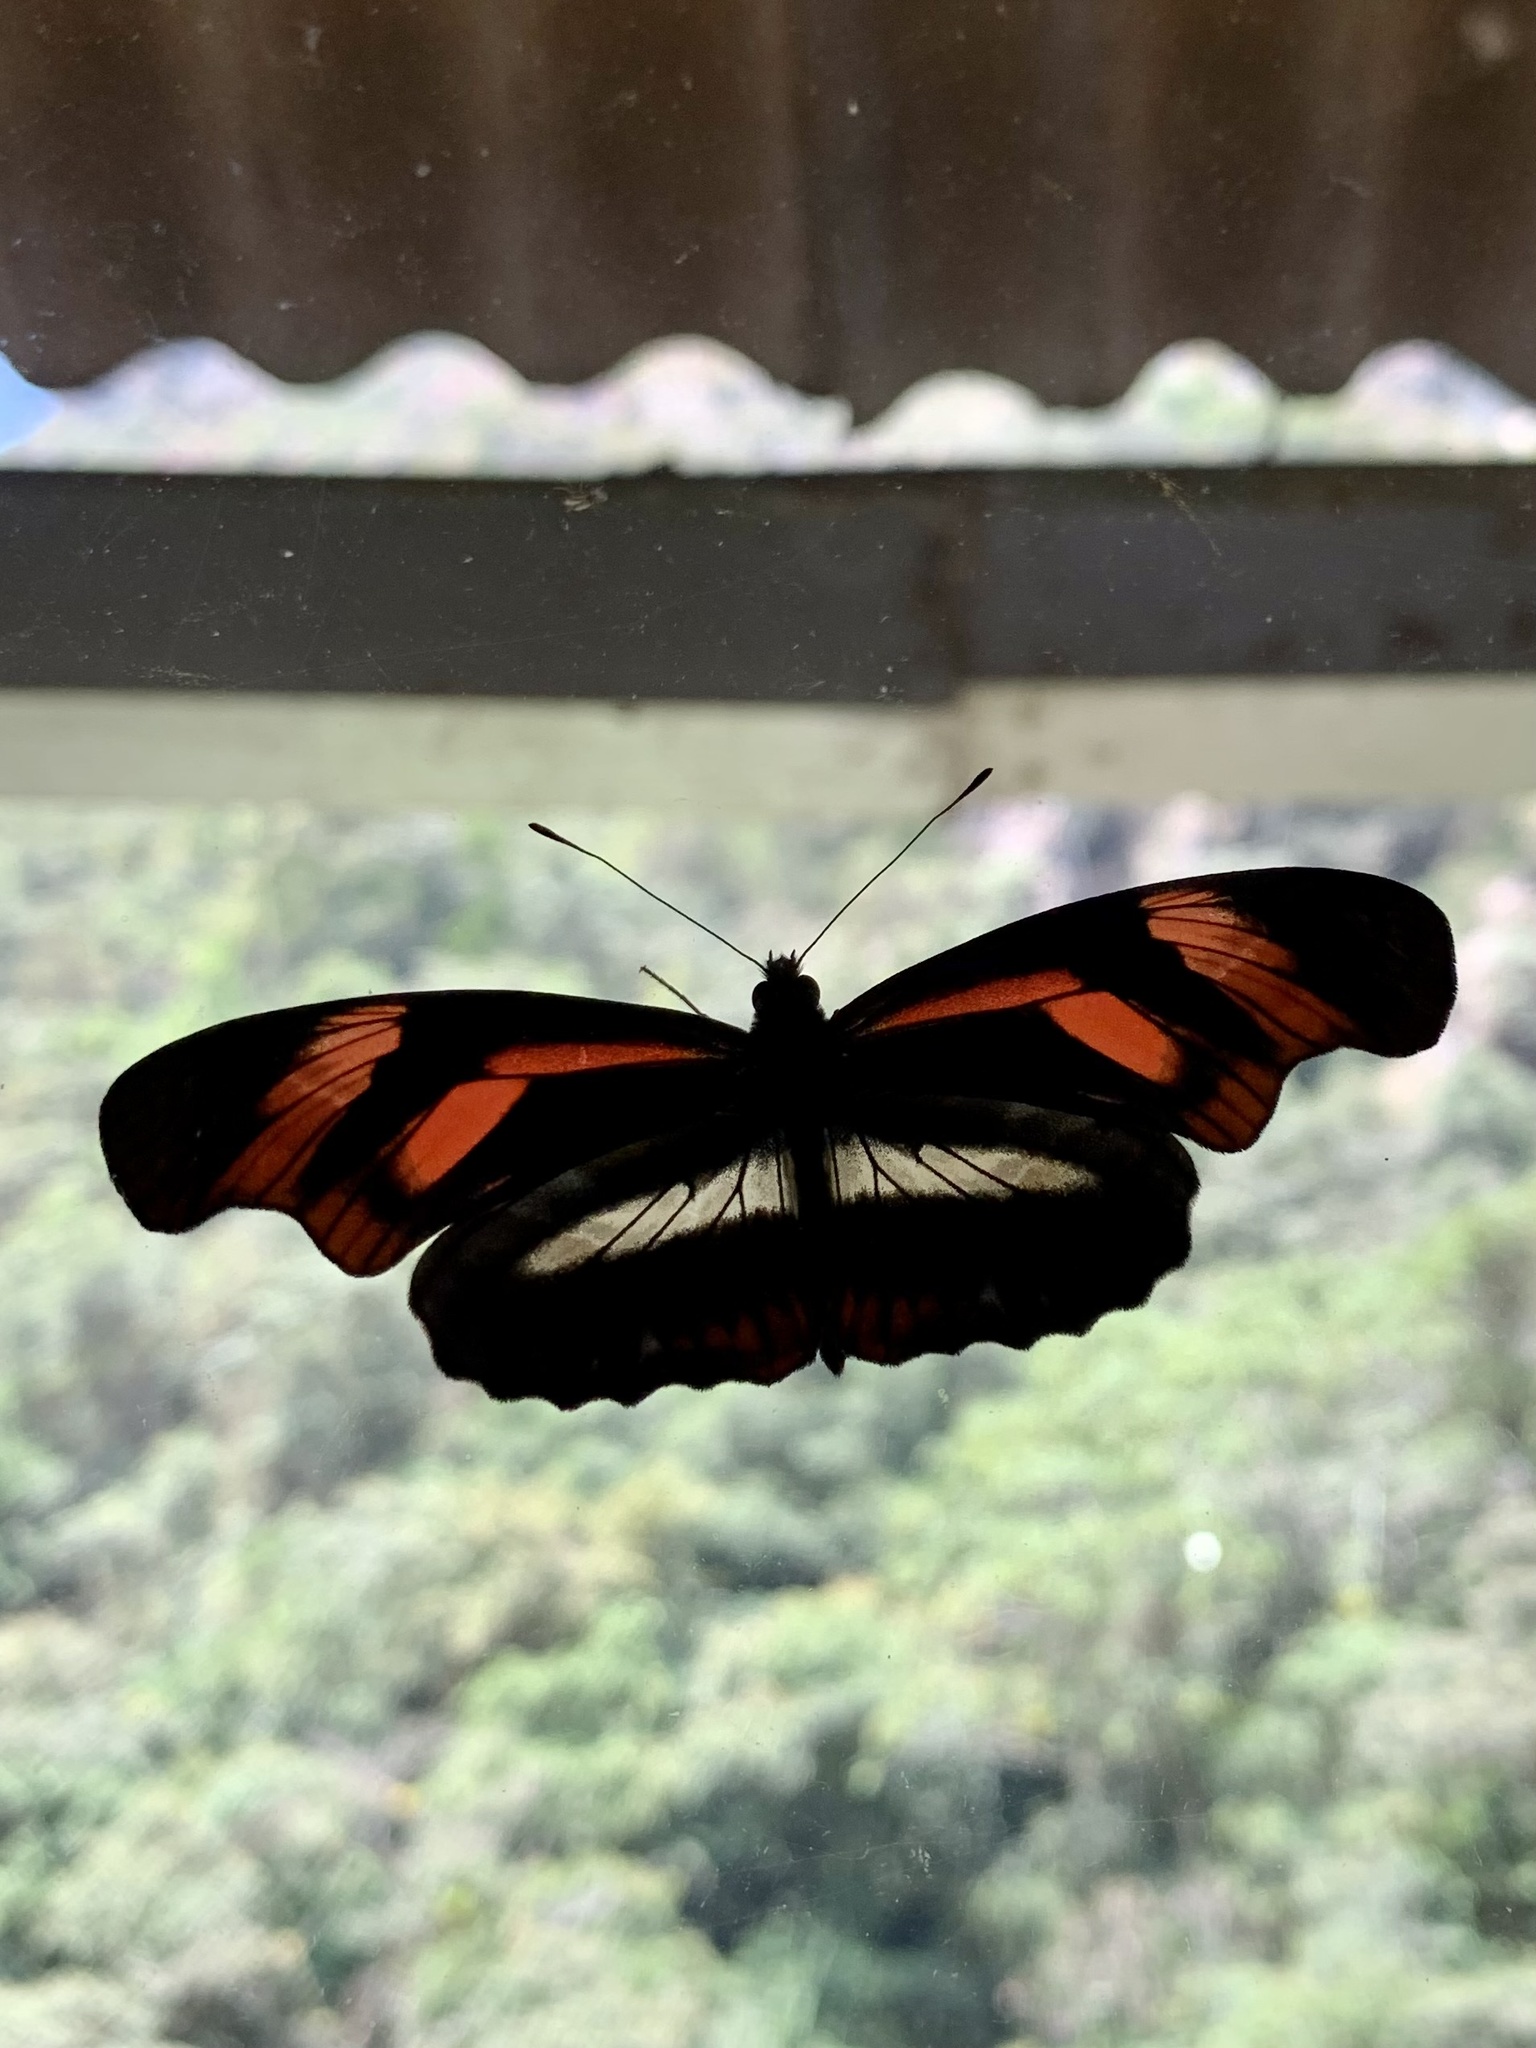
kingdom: Animalia
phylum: Arthropoda
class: Insecta
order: Lepidoptera
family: Nymphalidae
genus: Podotricha
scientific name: Podotricha telesiphe
